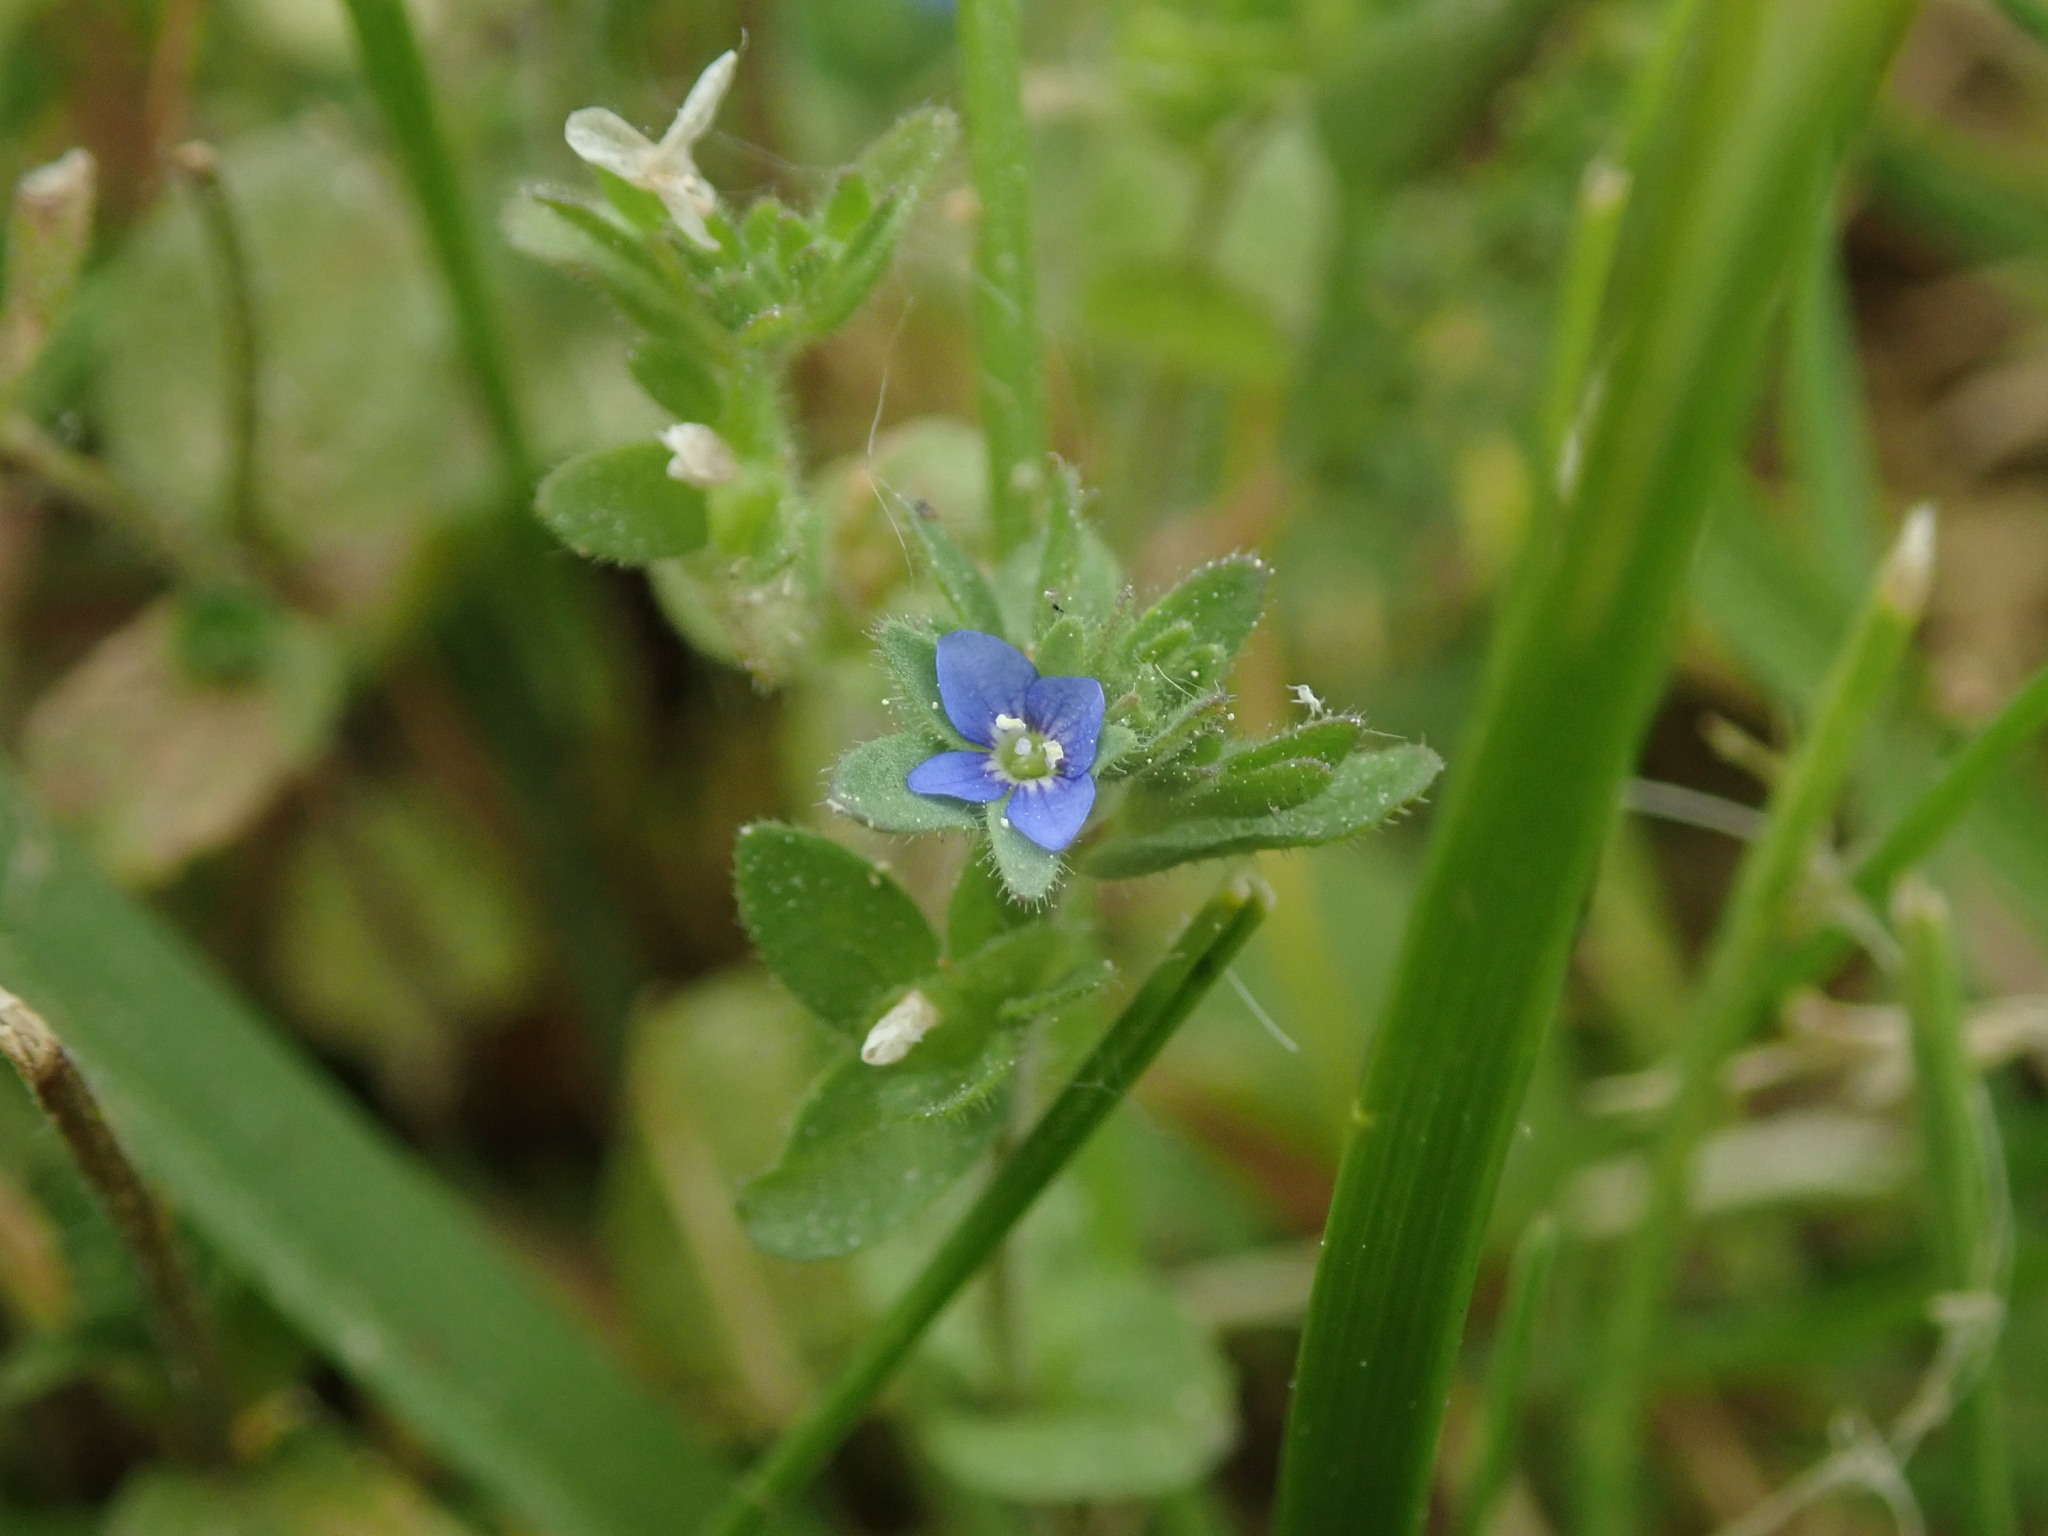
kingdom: Plantae
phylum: Tracheophyta
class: Magnoliopsida
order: Lamiales
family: Plantaginaceae
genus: Veronica
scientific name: Veronica arvensis
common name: Corn speedwell
